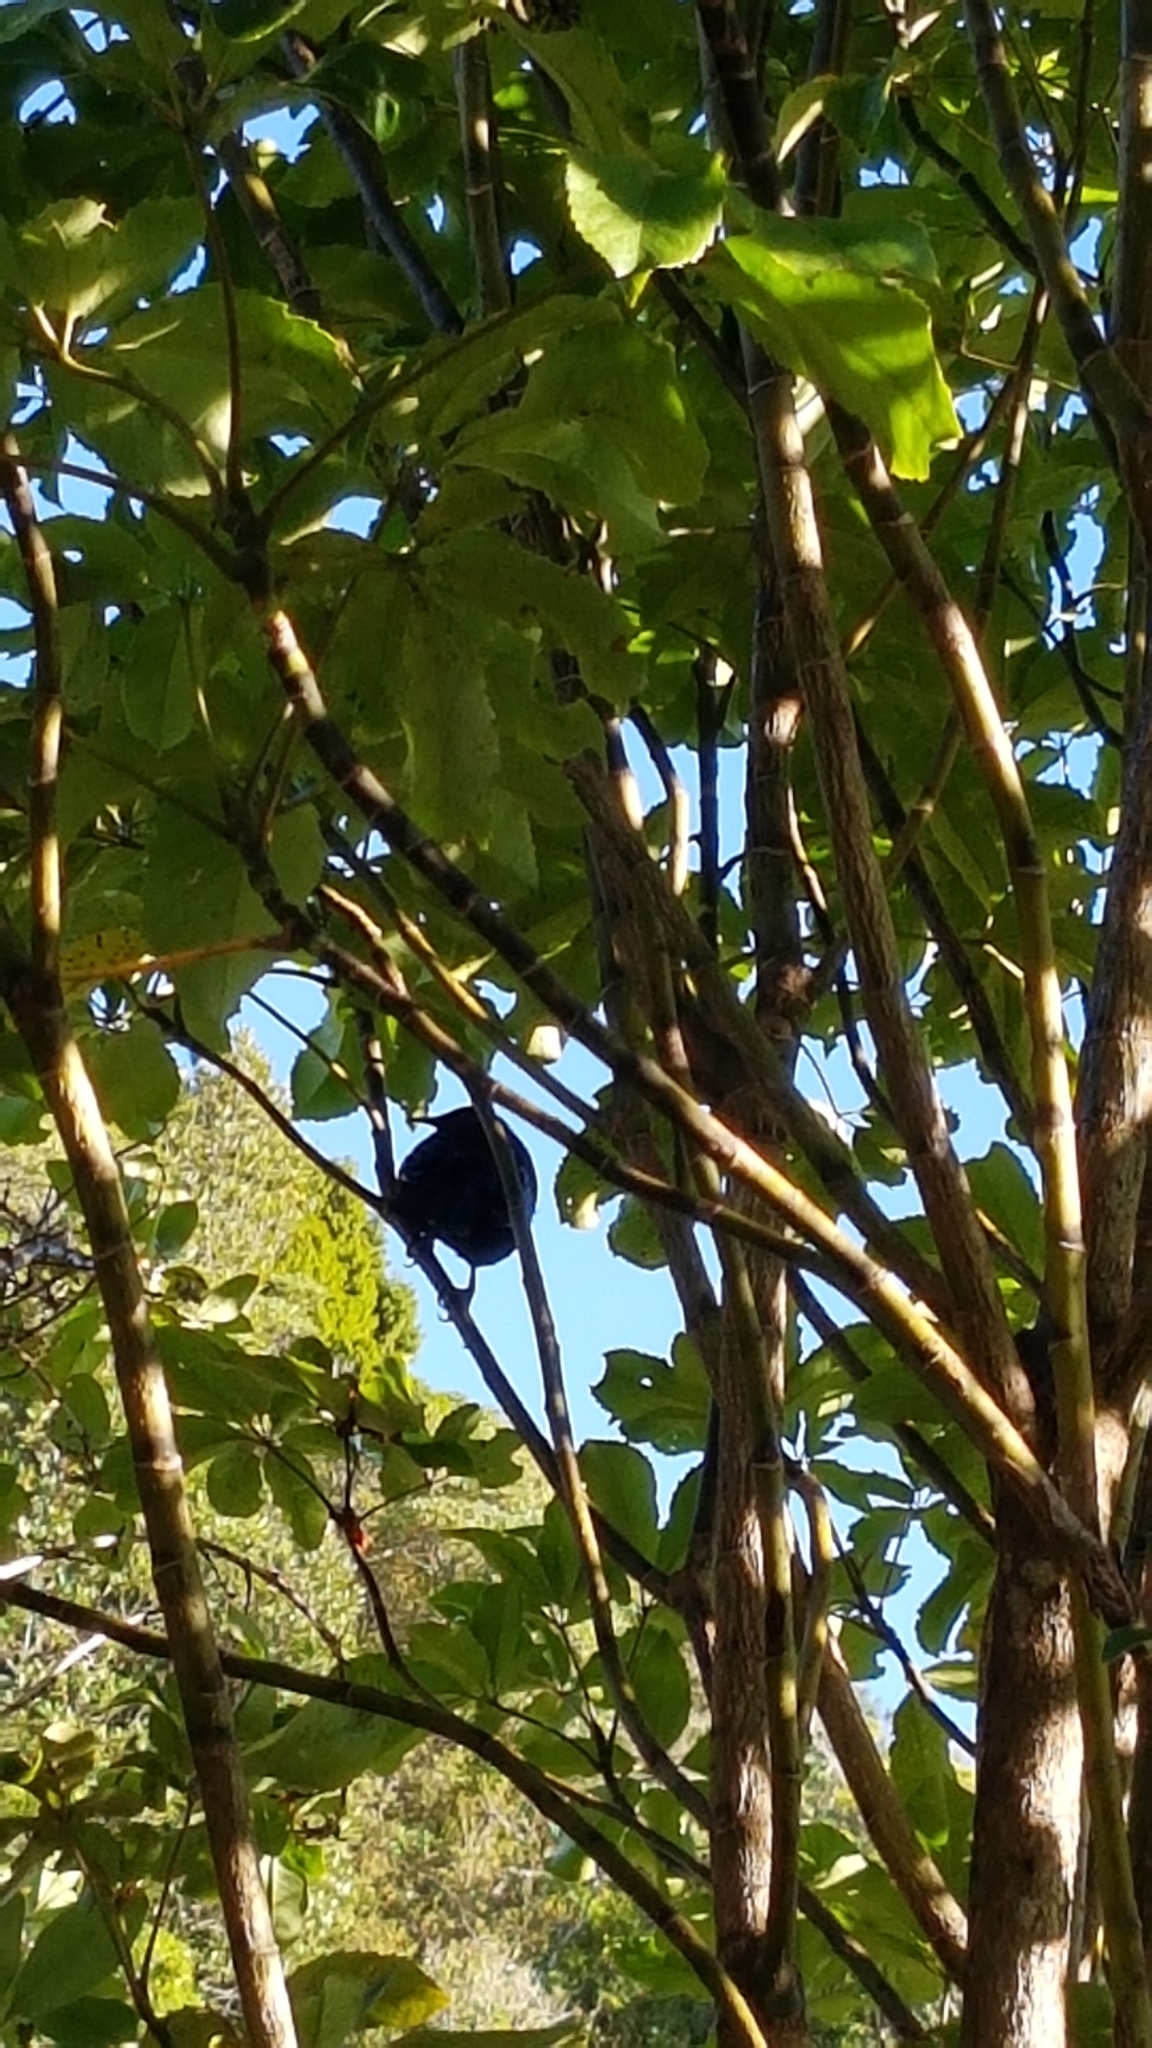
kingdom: Animalia
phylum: Chordata
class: Aves
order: Passeriformes
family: Meliphagidae
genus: Prosthemadera
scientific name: Prosthemadera novaeseelandiae
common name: Tui
